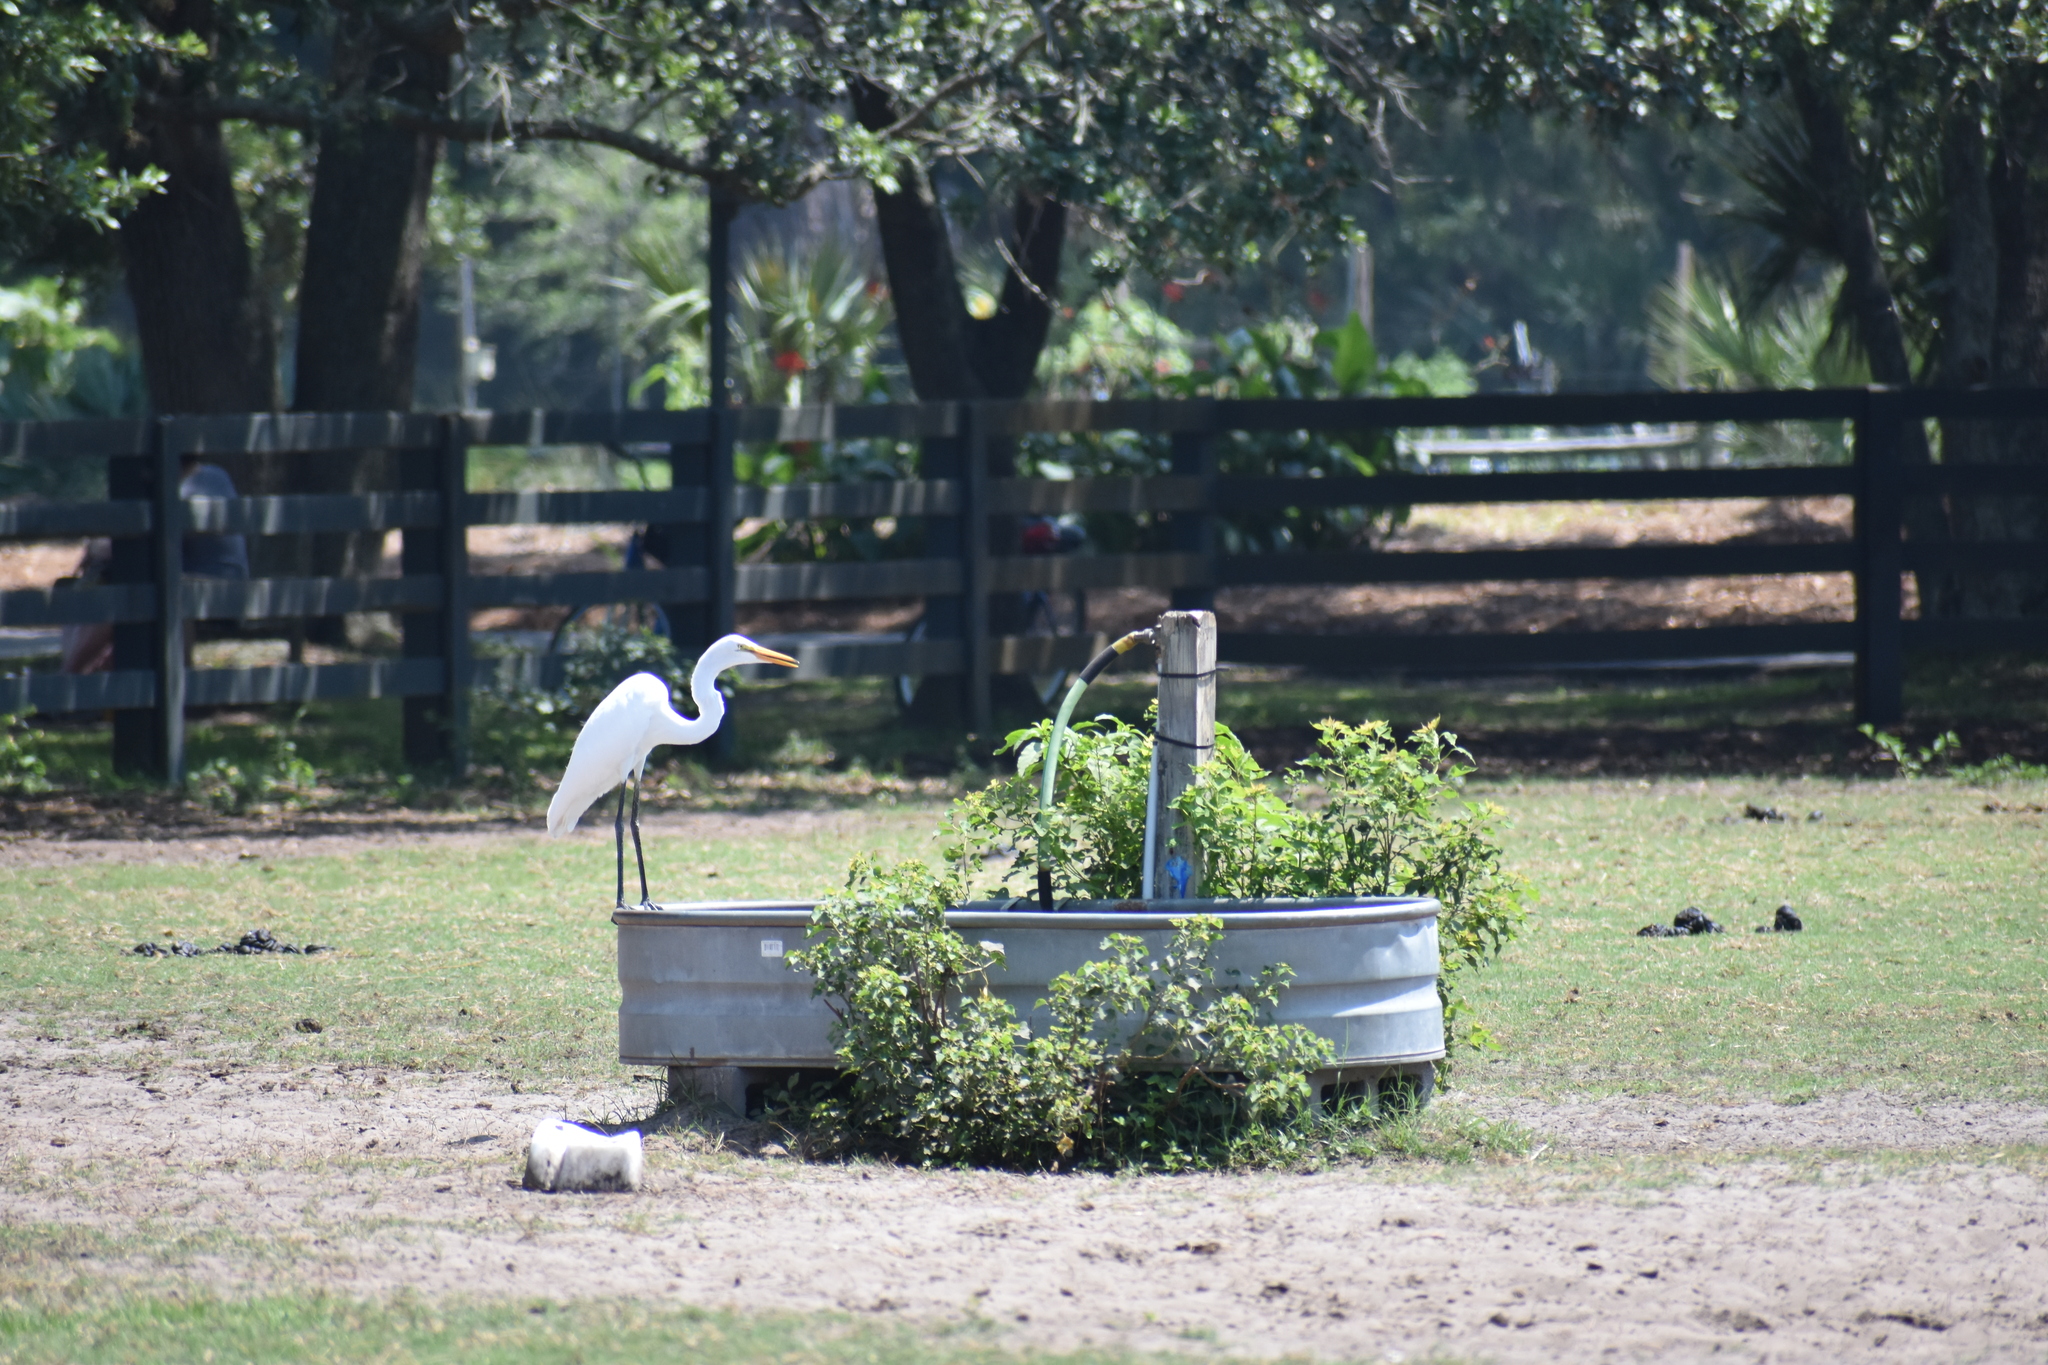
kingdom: Animalia
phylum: Chordata
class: Aves
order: Pelecaniformes
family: Ardeidae
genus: Ardea
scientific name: Ardea alba
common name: Great egret
